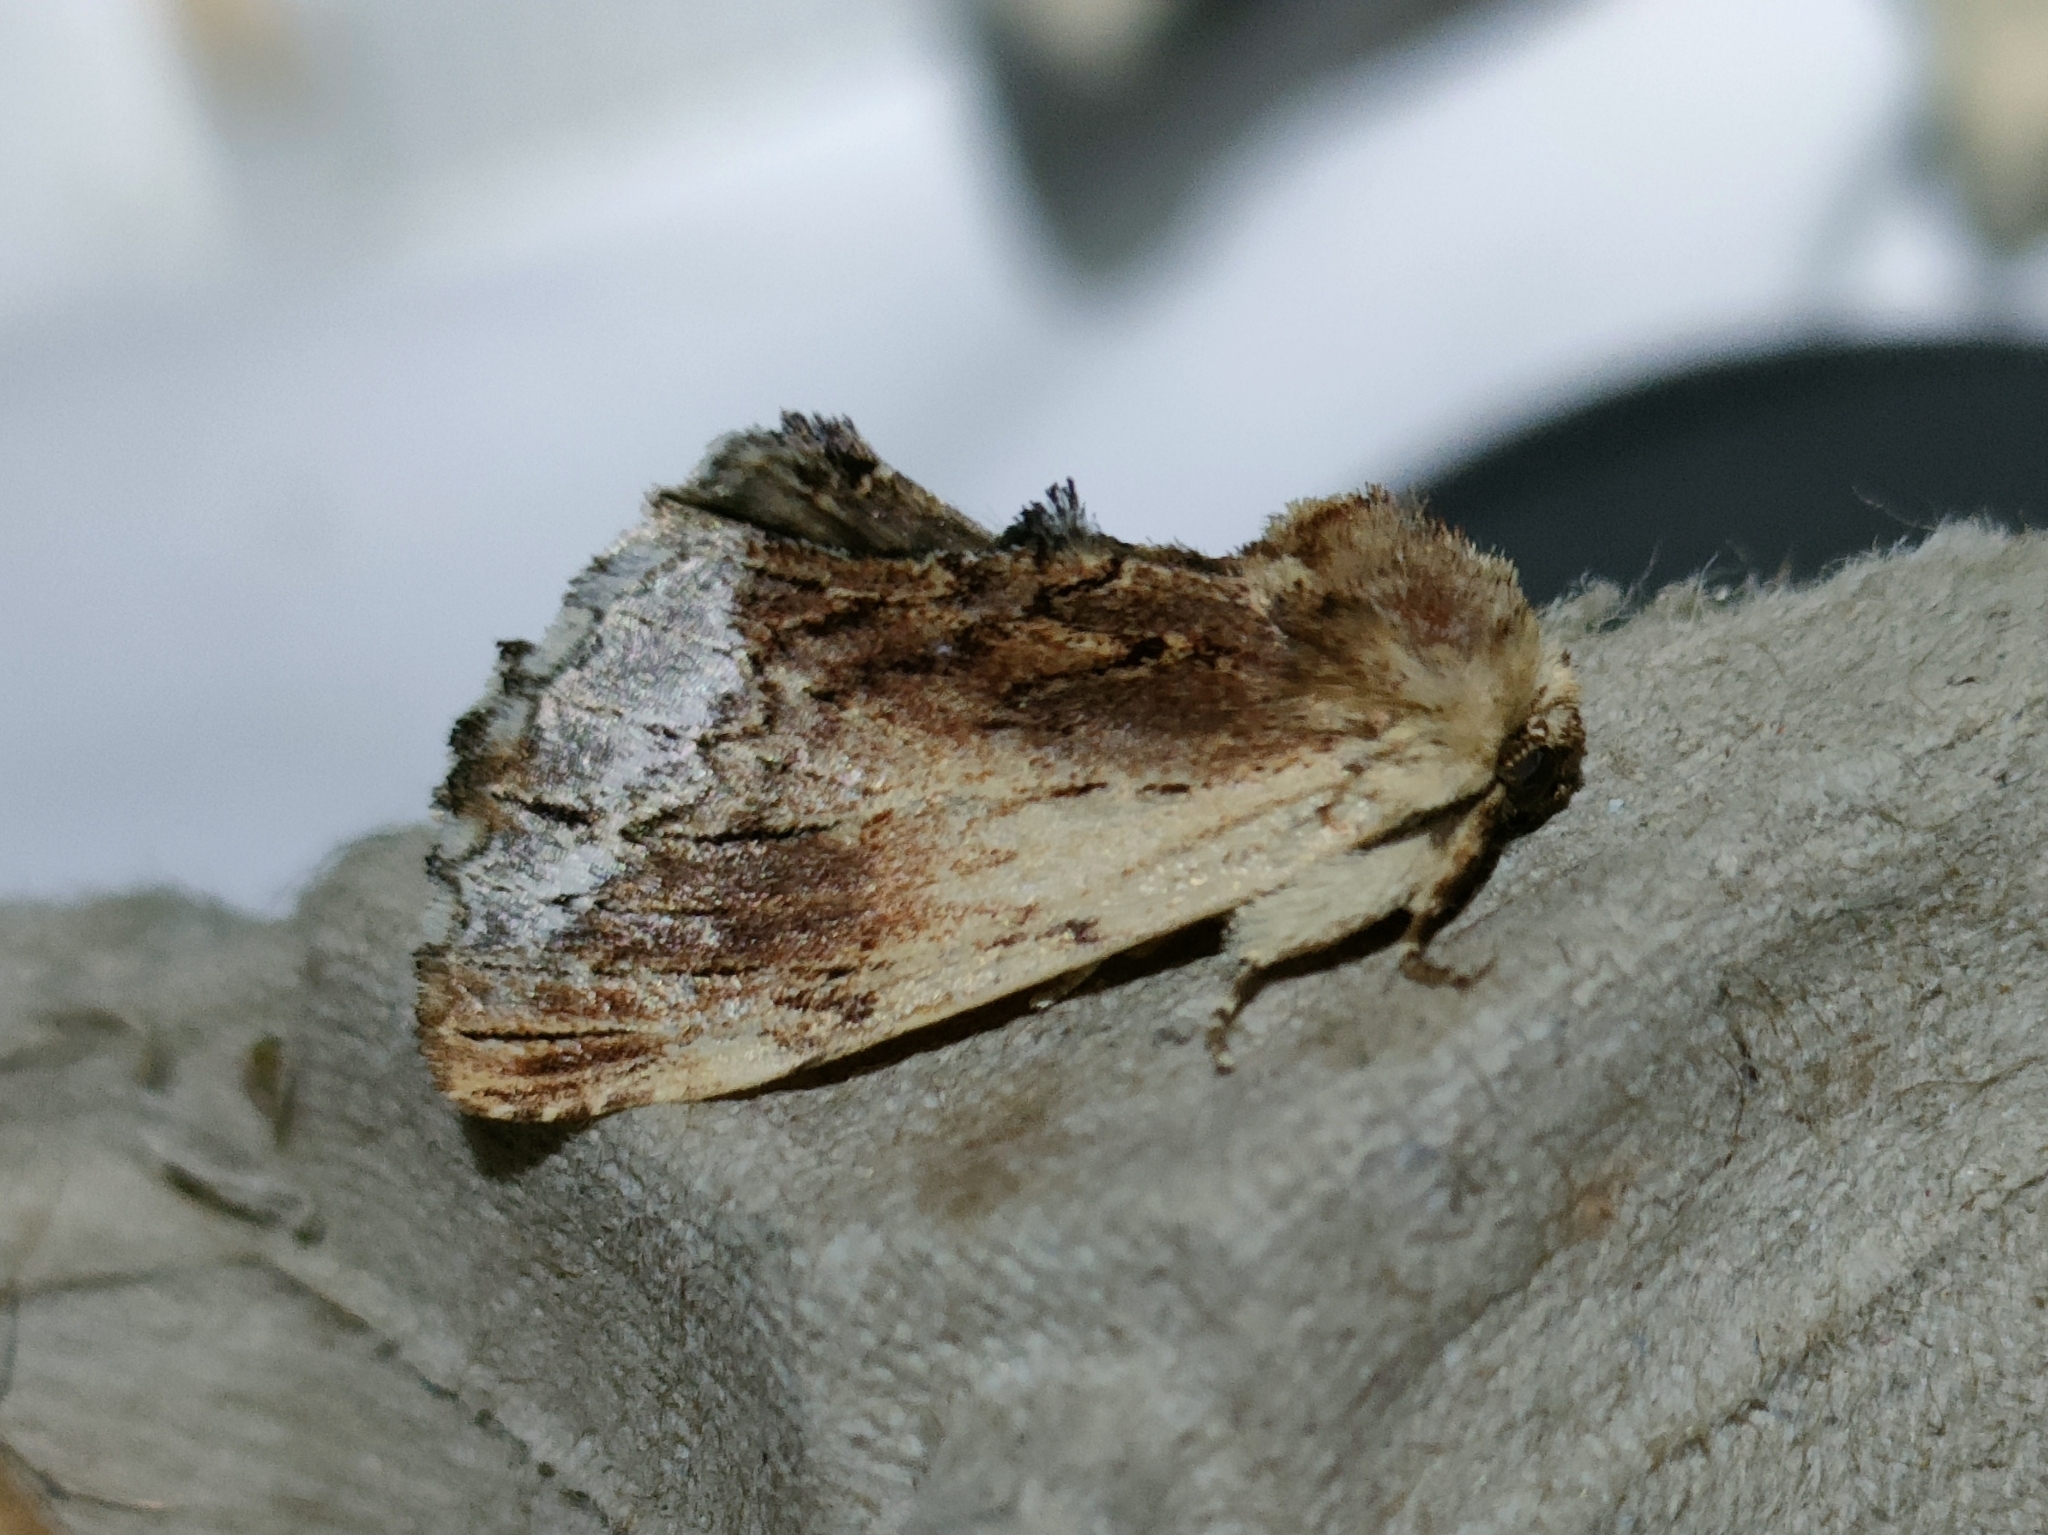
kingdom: Animalia
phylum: Arthropoda
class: Insecta
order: Lepidoptera
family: Notodontidae
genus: Ptilodon
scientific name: Ptilodon cucullina
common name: Maple prominent
